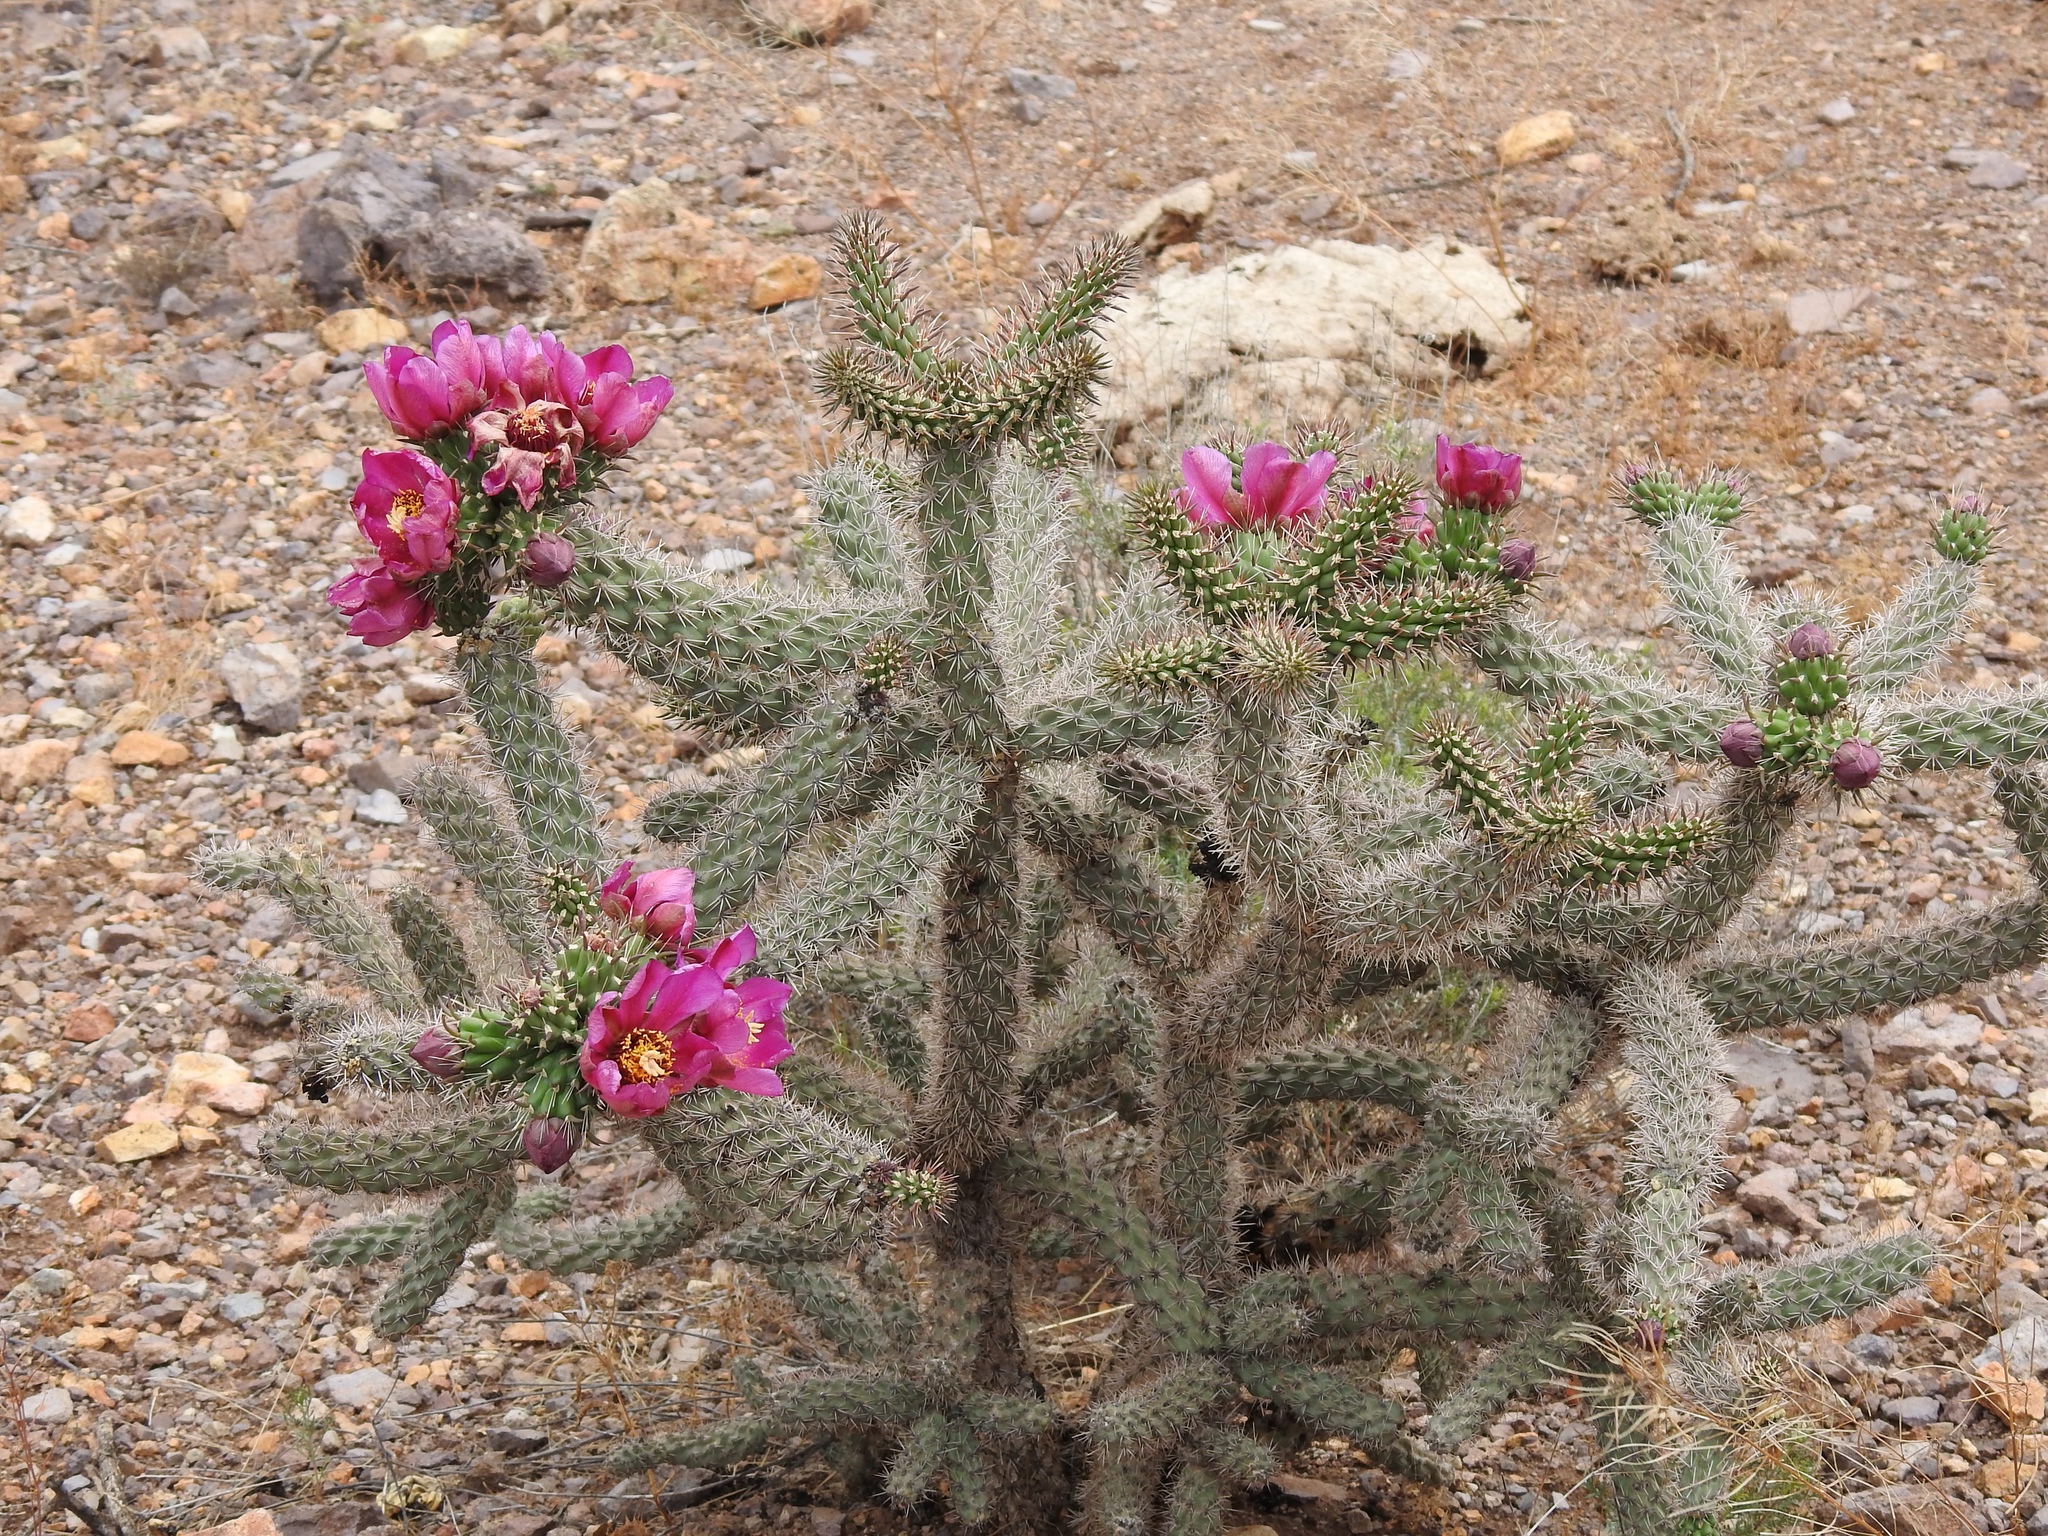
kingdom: Plantae
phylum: Tracheophyta
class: Magnoliopsida
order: Caryophyllales
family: Cactaceae
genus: Cylindropuntia
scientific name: Cylindropuntia imbricata
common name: Candelabrum cactus
